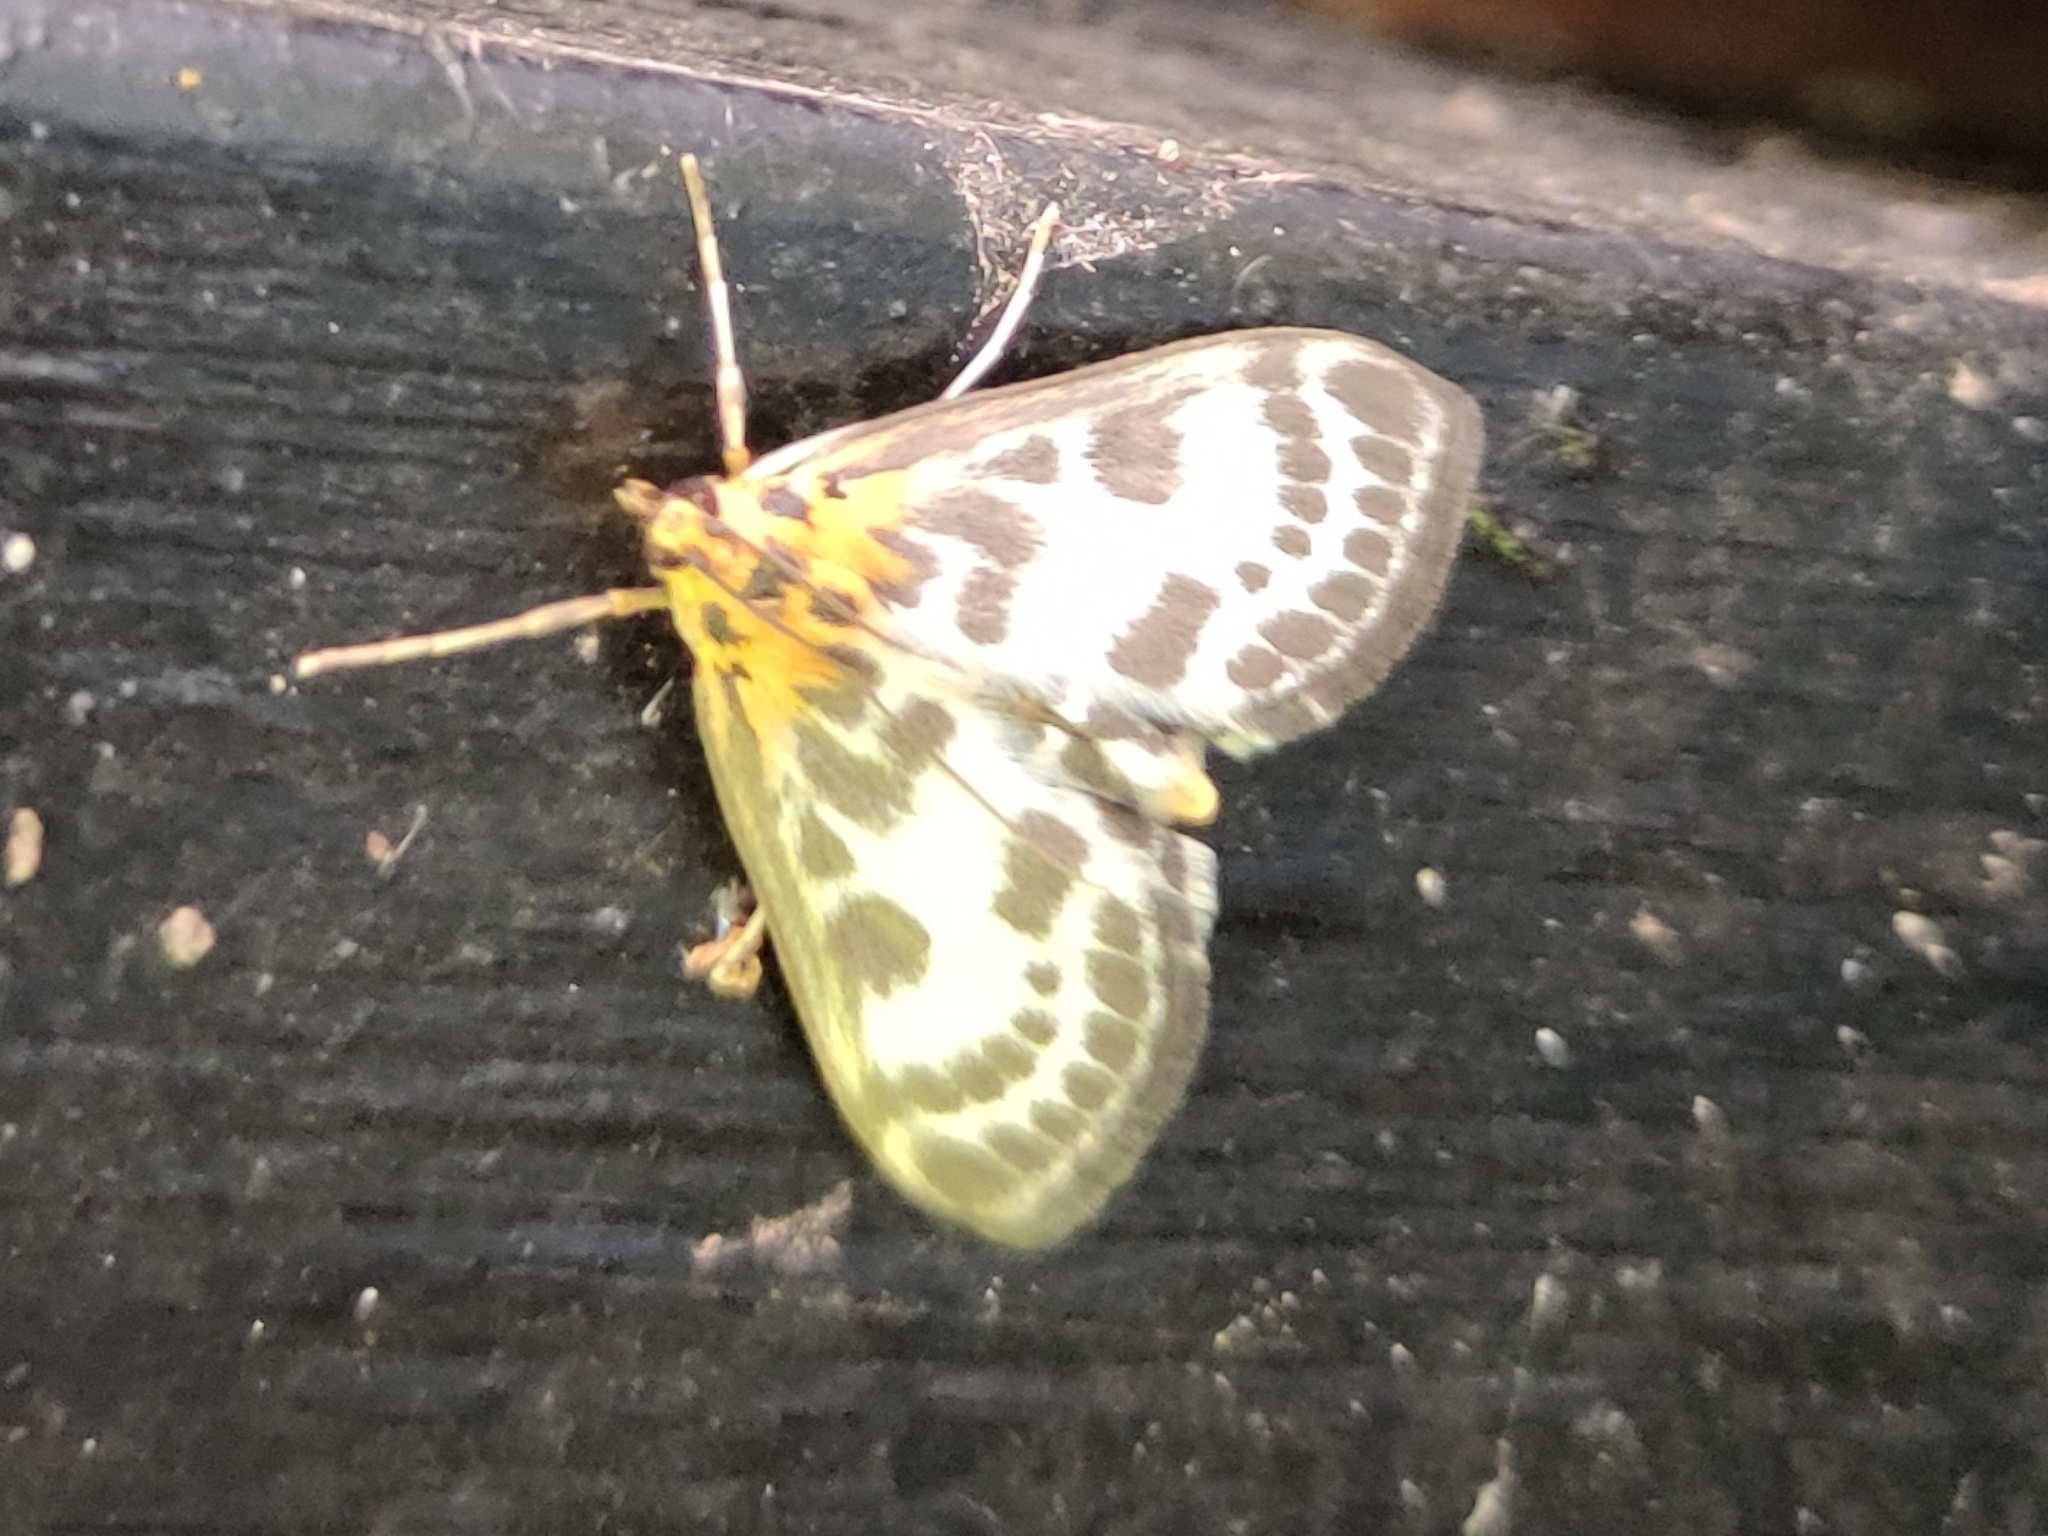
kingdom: Animalia
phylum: Arthropoda
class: Insecta
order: Lepidoptera
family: Crambidae
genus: Anania
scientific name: Anania hortulata
